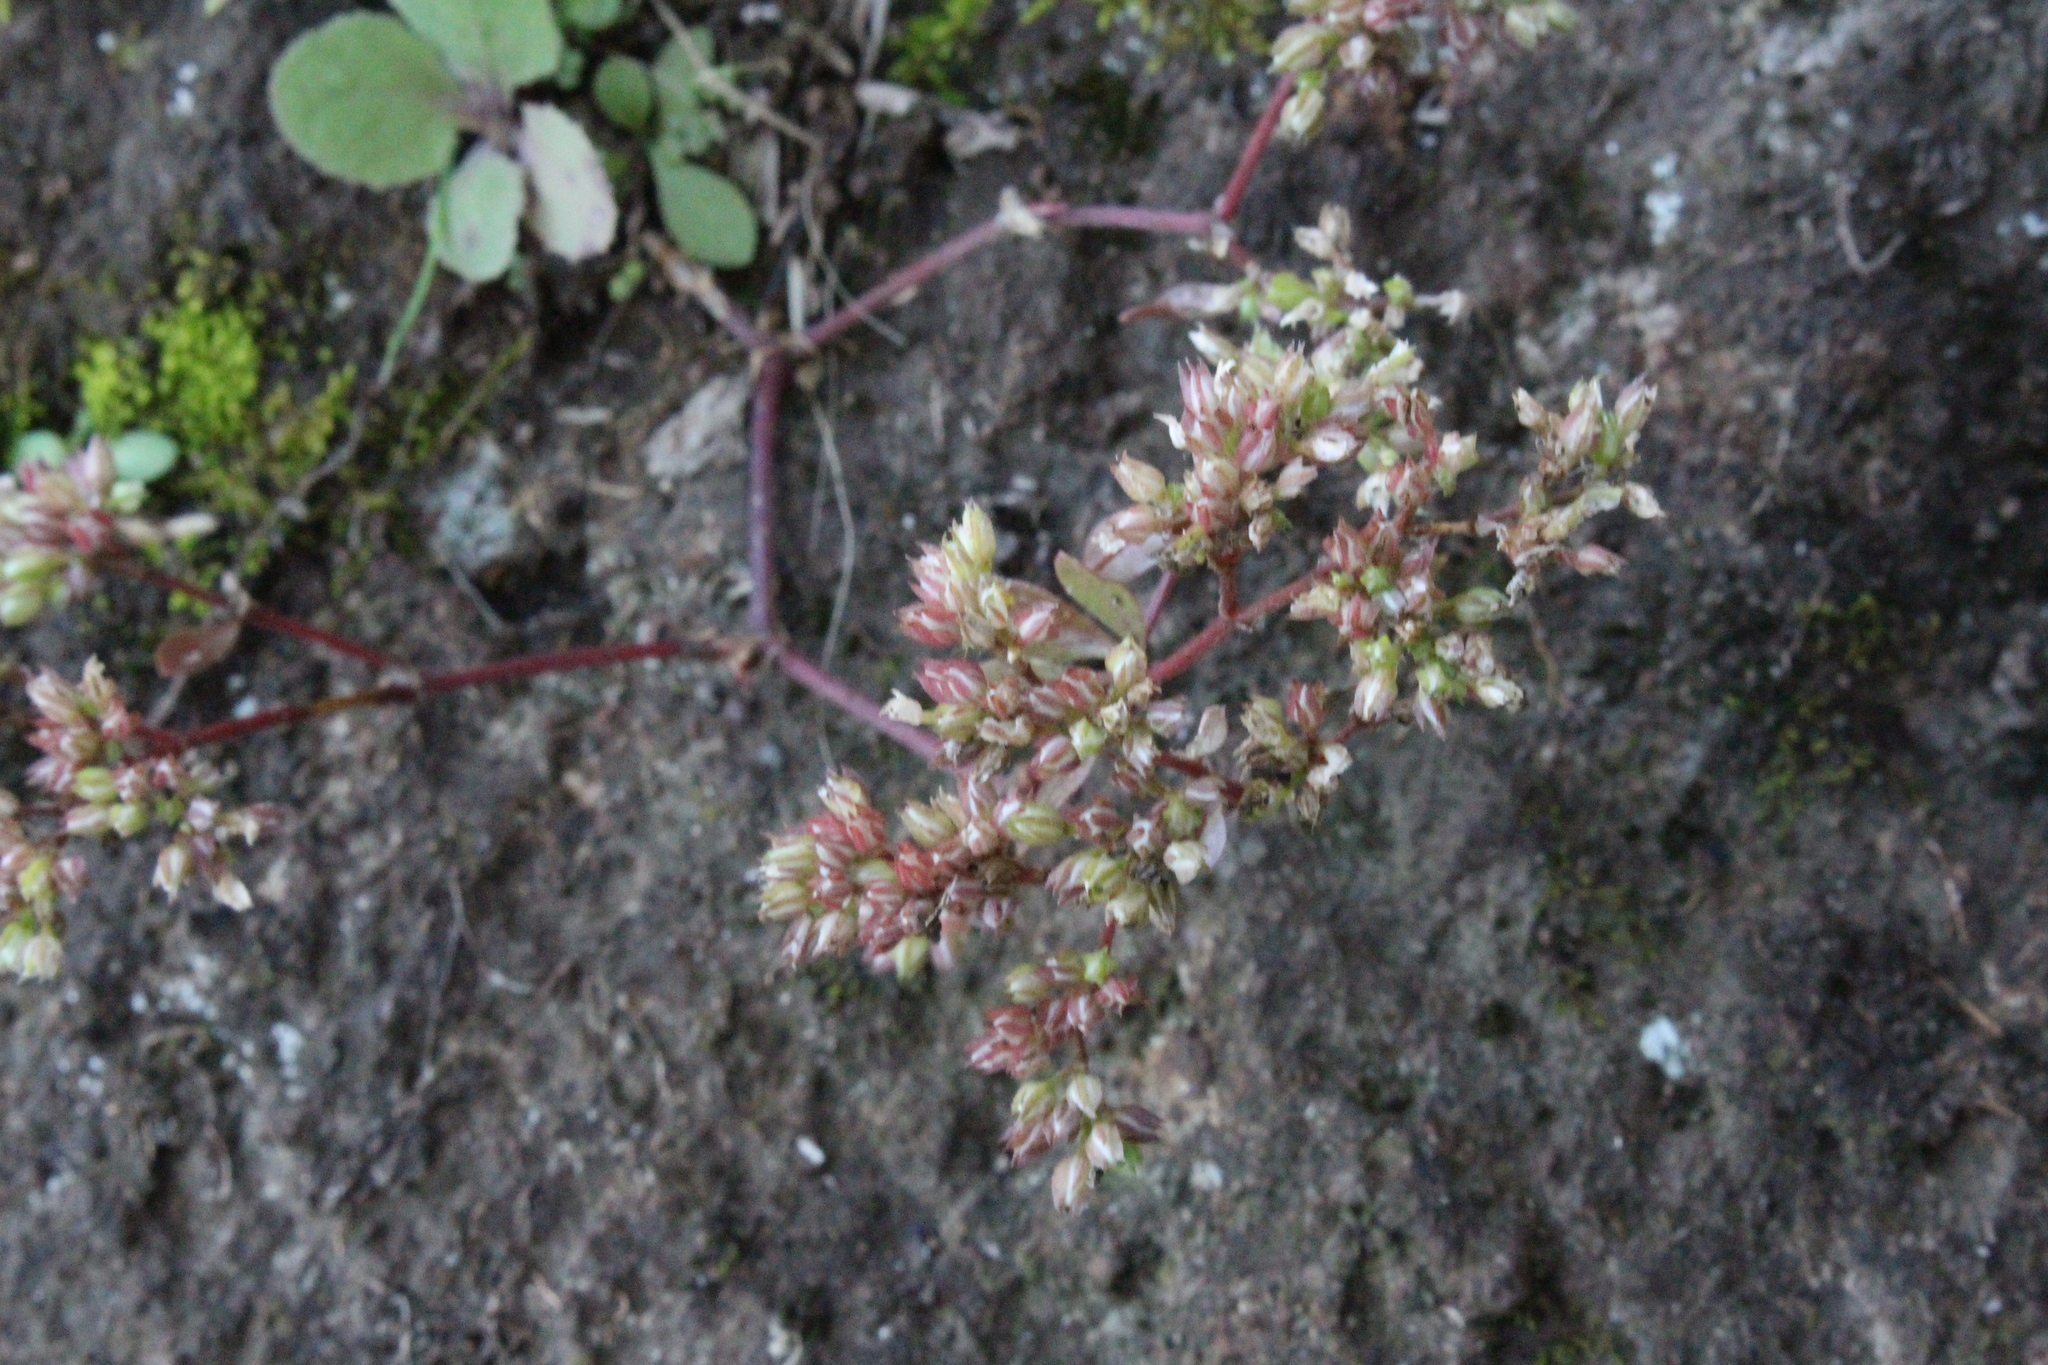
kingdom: Plantae
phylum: Tracheophyta
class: Magnoliopsida
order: Caryophyllales
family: Caryophyllaceae
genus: Polycarpon
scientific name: Polycarpon tetraphyllum
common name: Four-leaved all-seed
